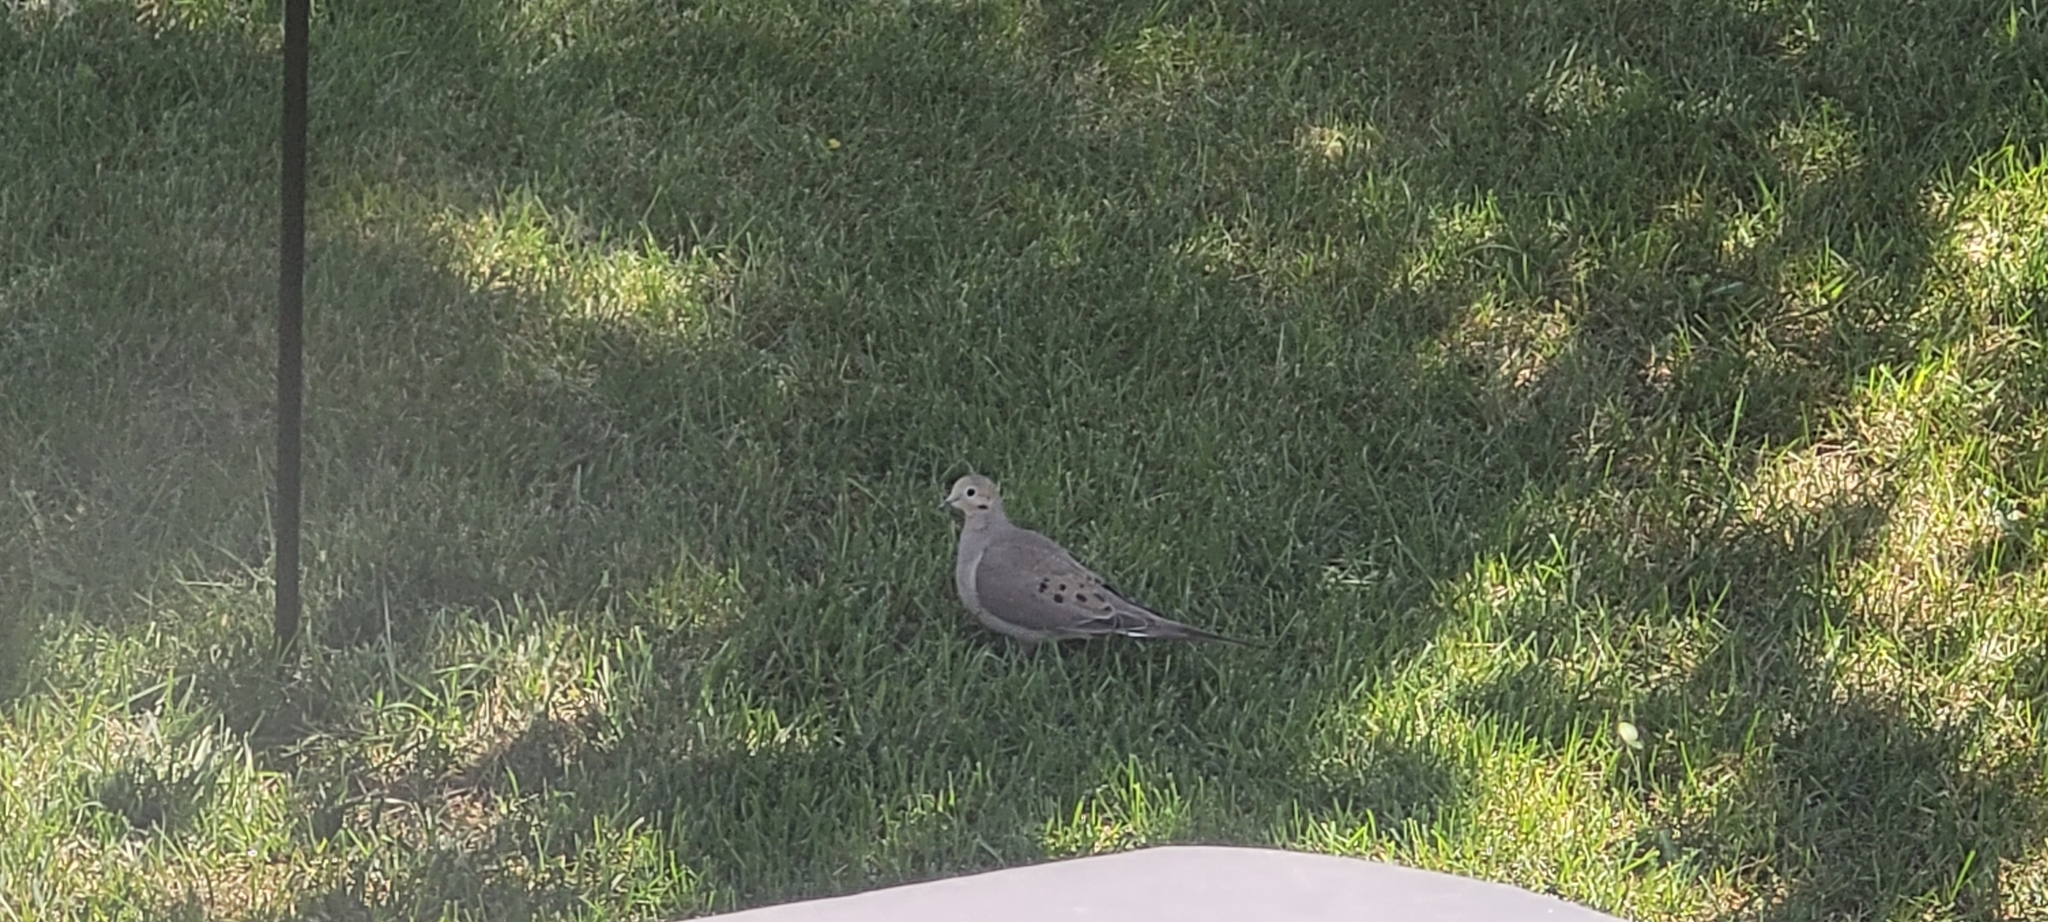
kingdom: Animalia
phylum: Chordata
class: Aves
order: Columbiformes
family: Columbidae
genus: Zenaida
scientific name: Zenaida macroura
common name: Mourning dove
